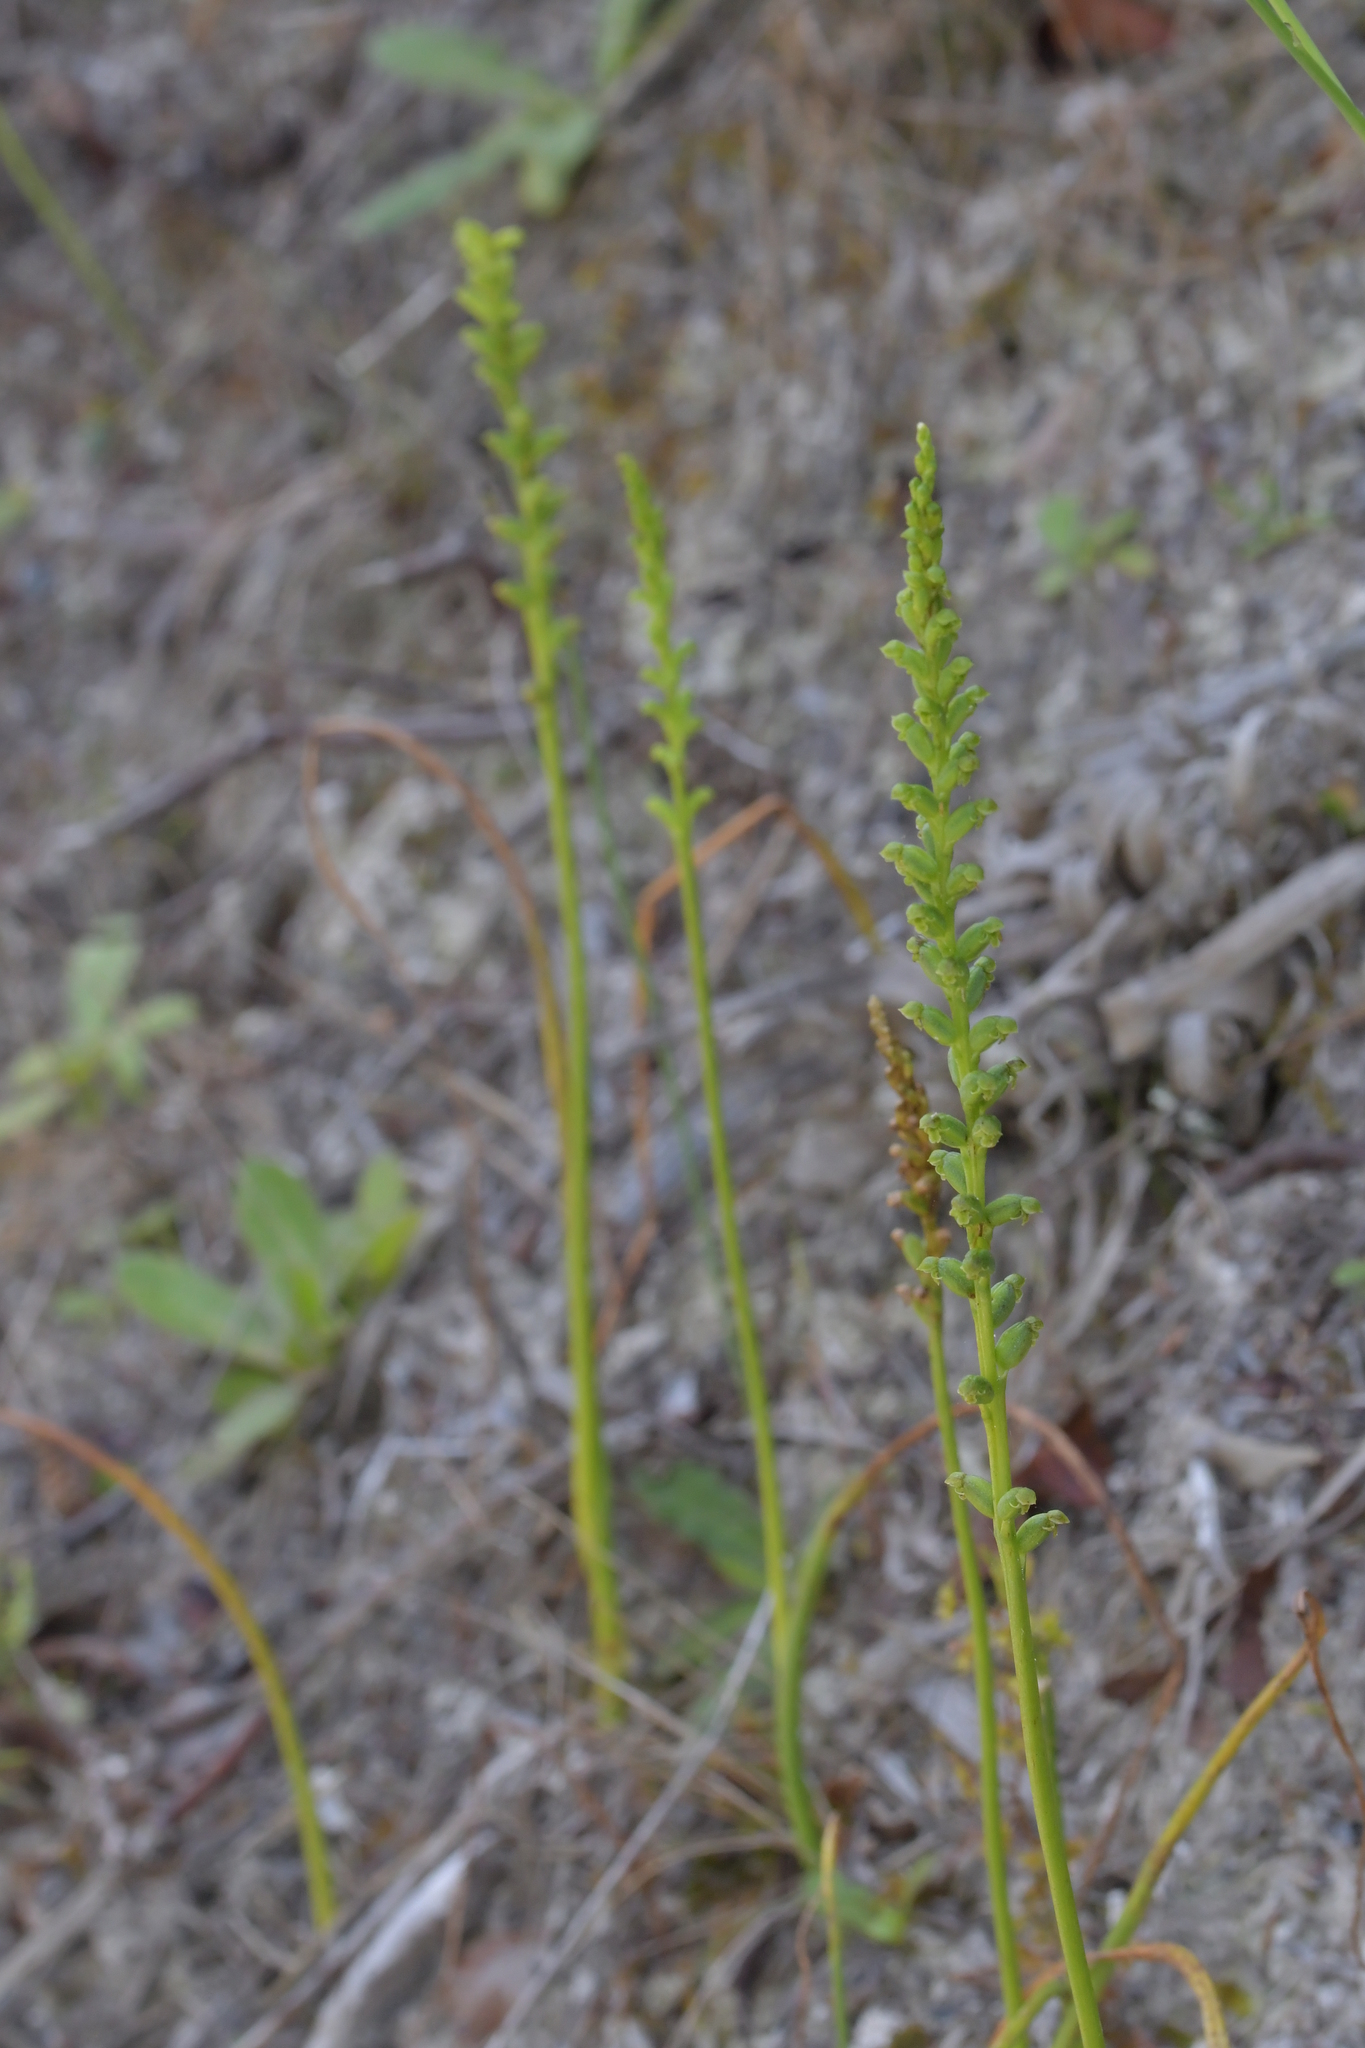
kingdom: Plantae
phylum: Tracheophyta
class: Liliopsida
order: Asparagales
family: Orchidaceae
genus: Microtis
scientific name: Microtis unifolia
